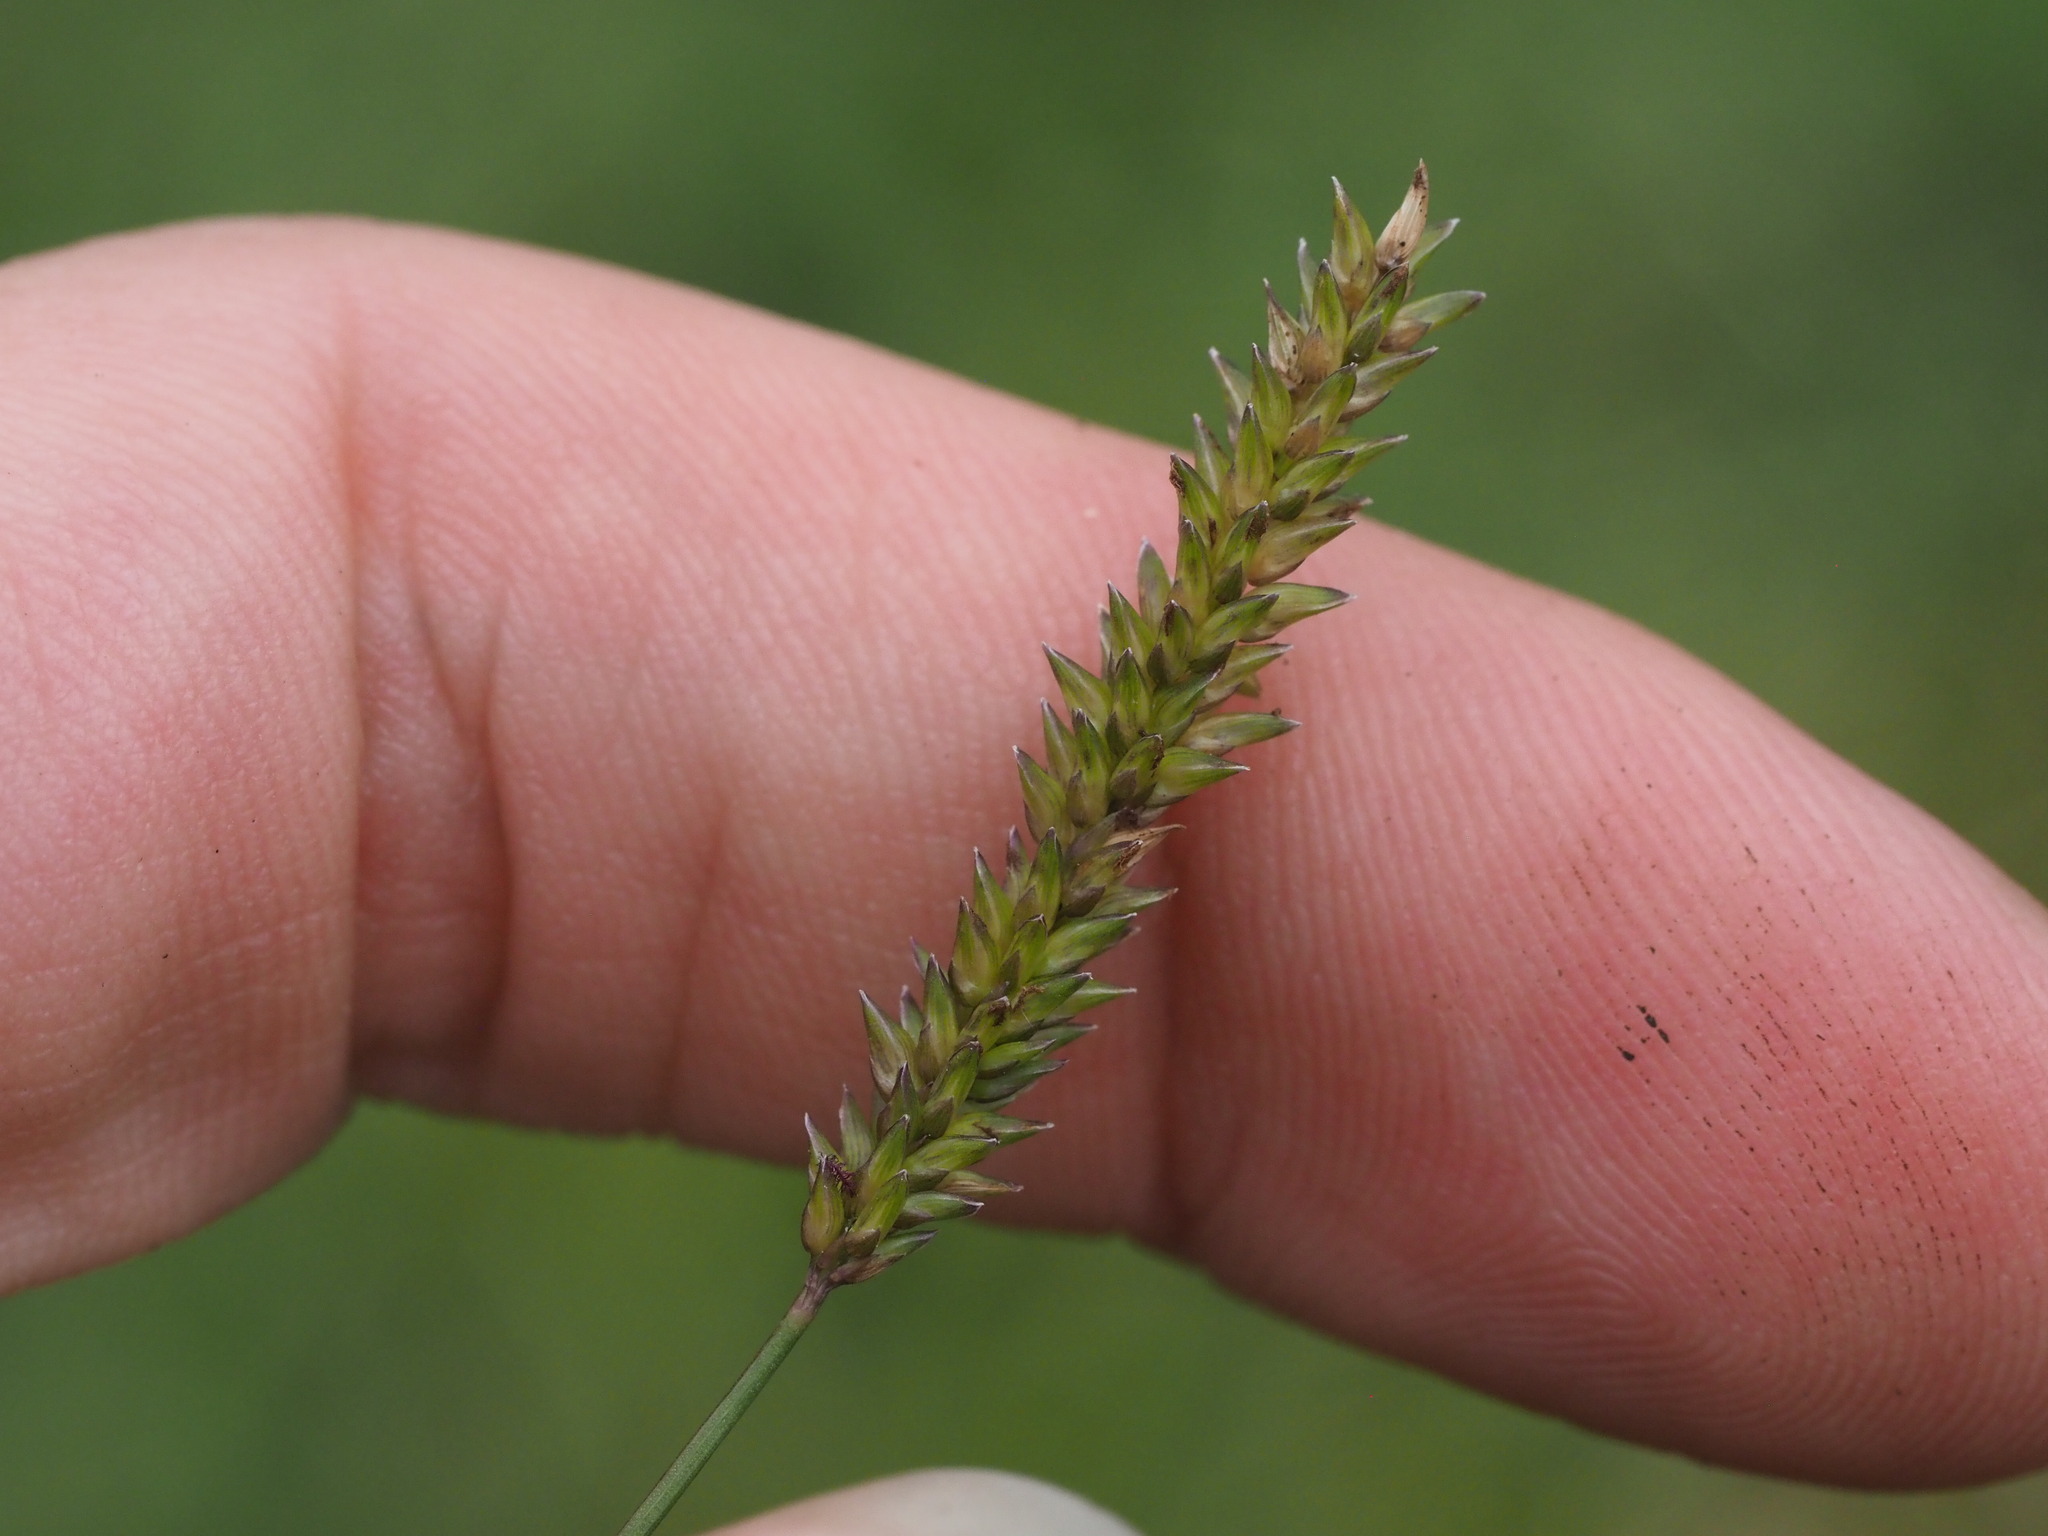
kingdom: Plantae
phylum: Tracheophyta
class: Liliopsida
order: Poales
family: Poaceae
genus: Sacciolepis
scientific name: Sacciolepis indica
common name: Glenwoodgrass
